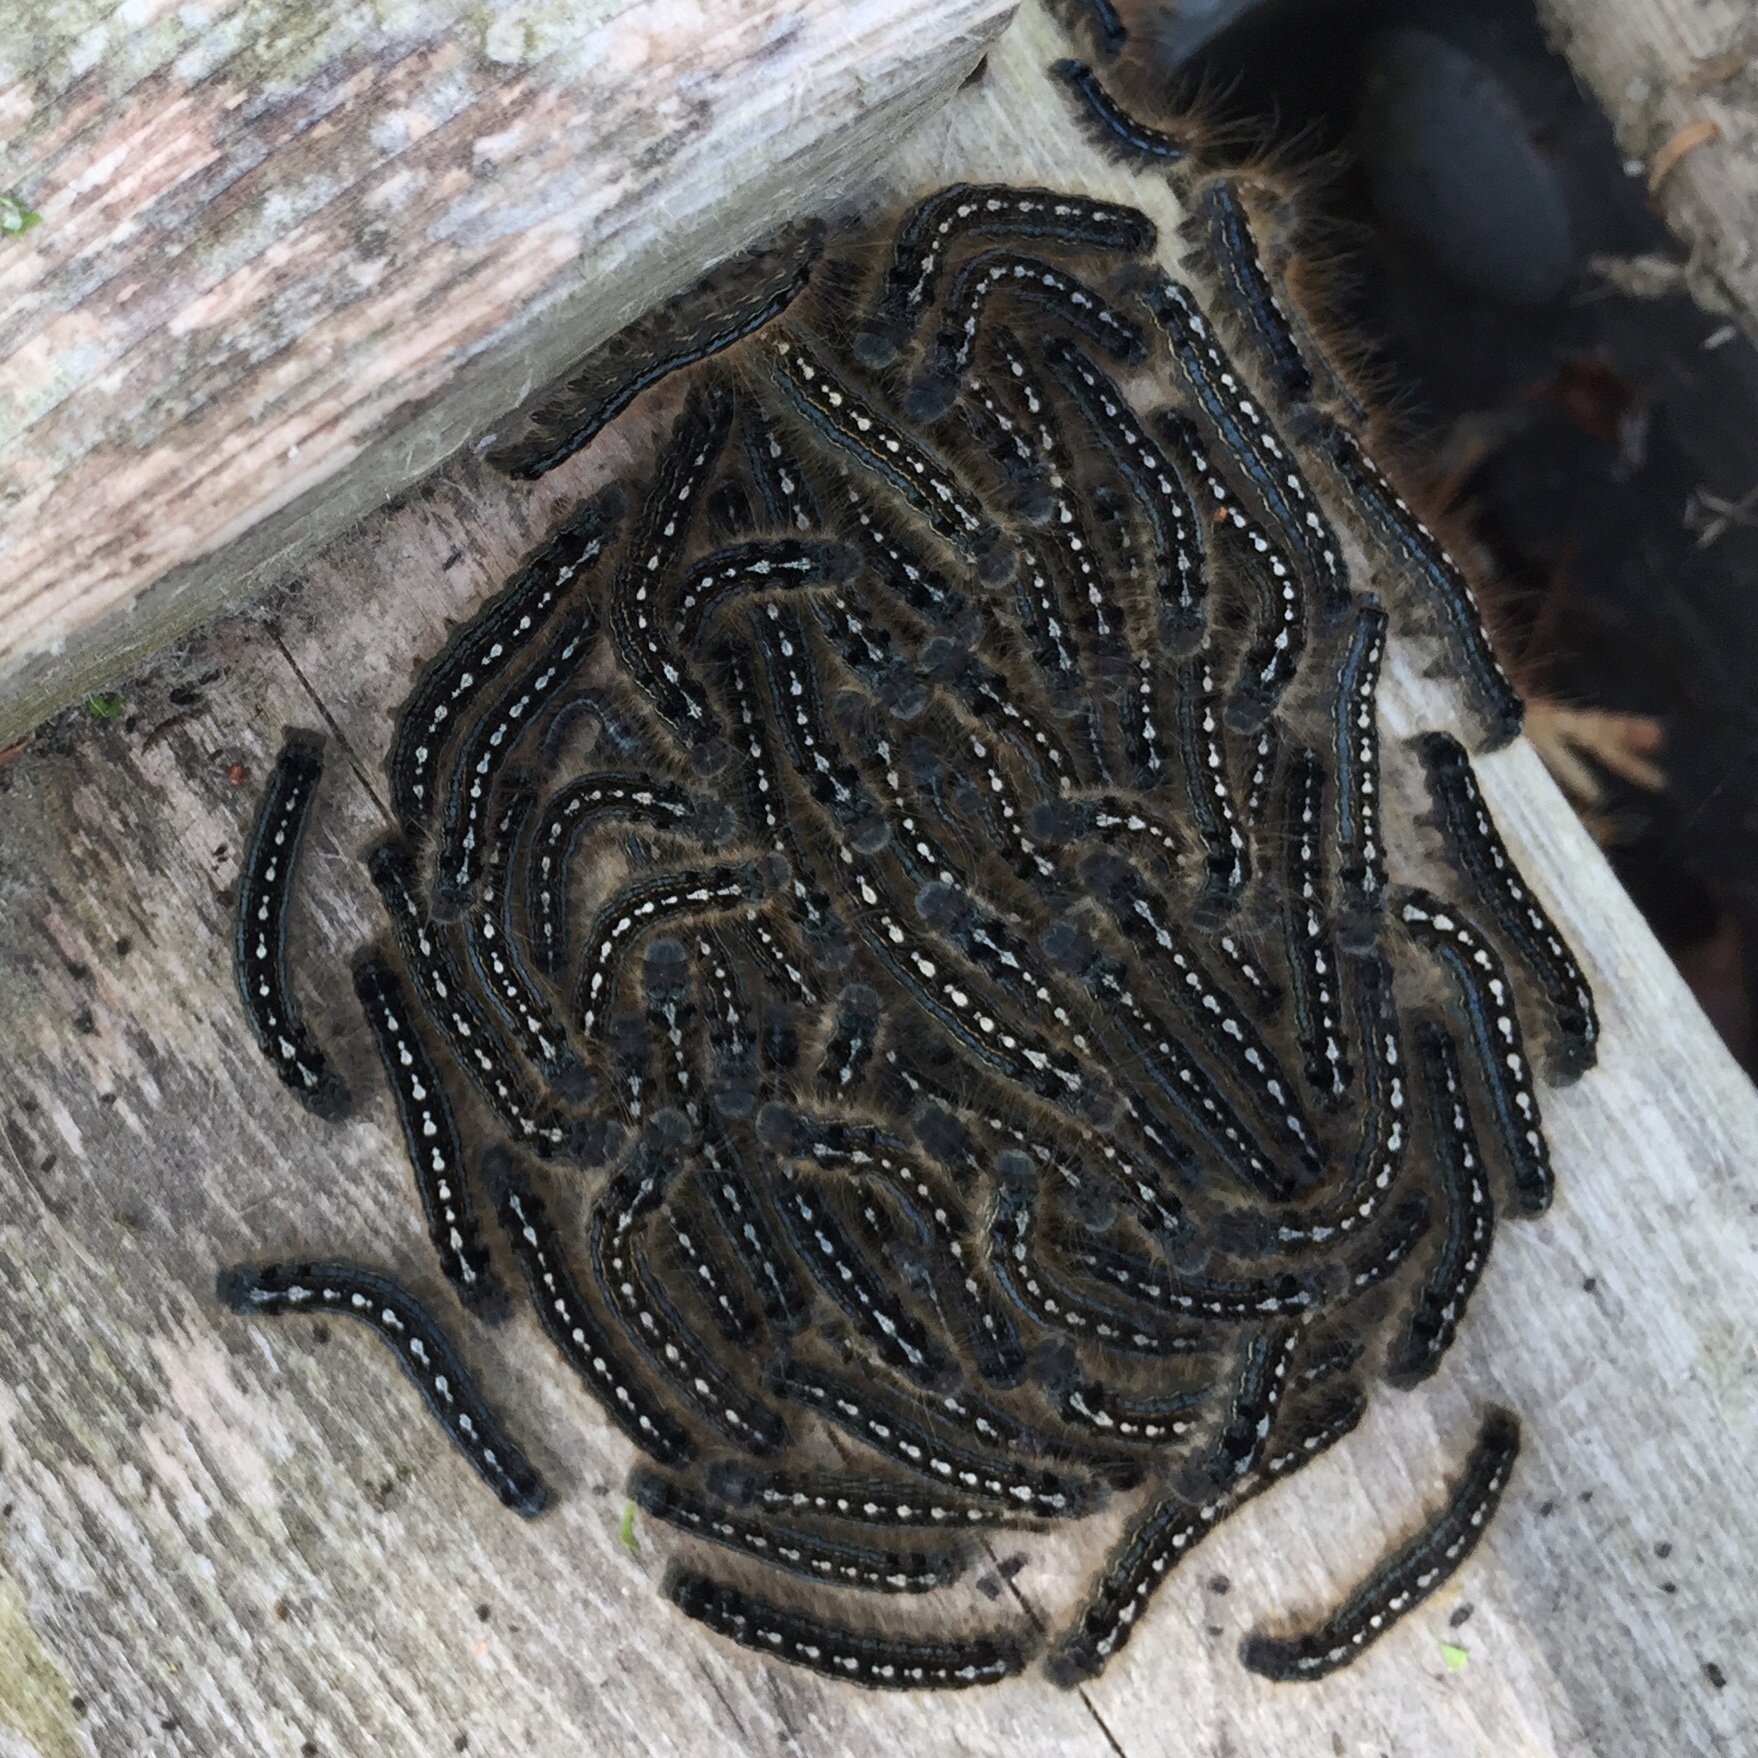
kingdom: Animalia
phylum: Arthropoda
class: Insecta
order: Lepidoptera
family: Lasiocampidae
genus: Malacosoma
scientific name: Malacosoma disstria
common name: Forest tent caterpillar
